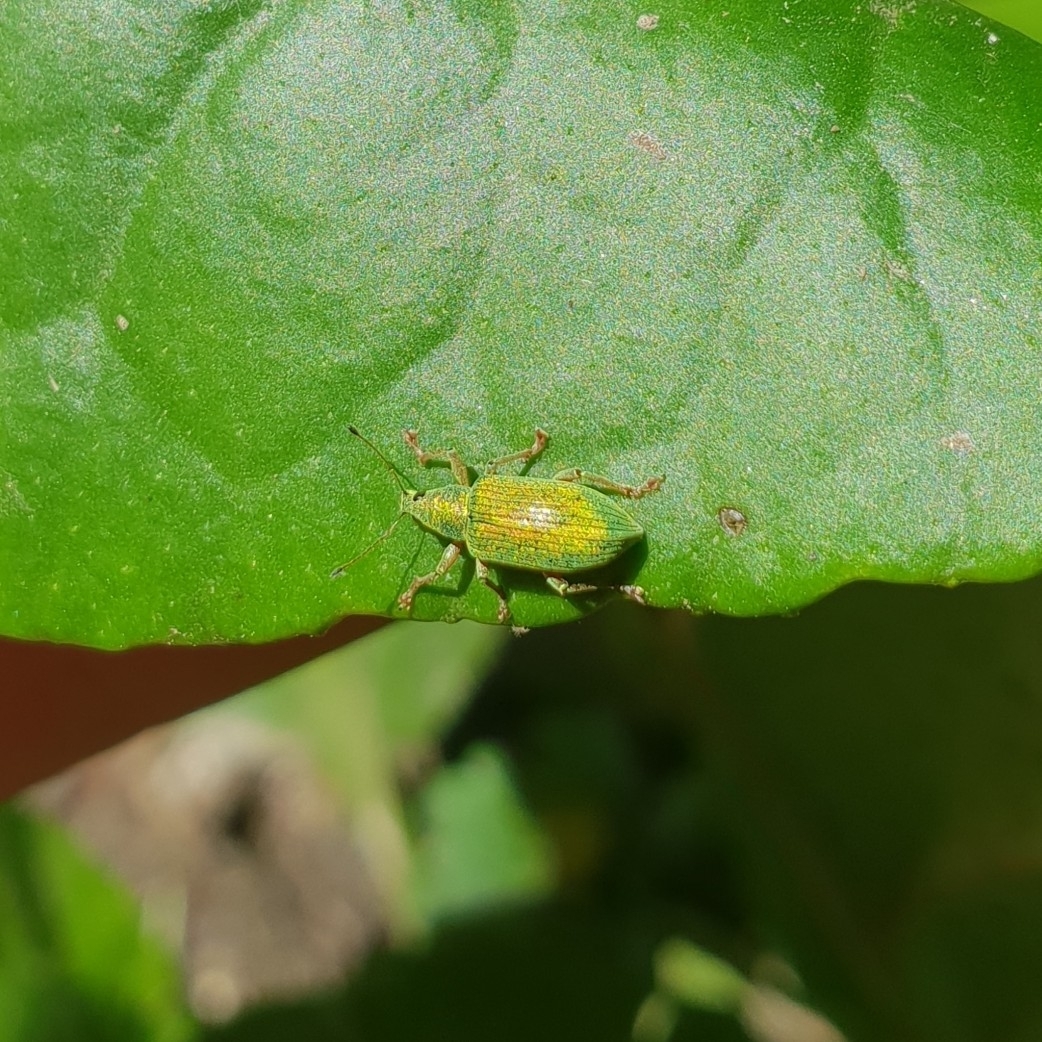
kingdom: Animalia
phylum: Arthropoda
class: Insecta
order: Coleoptera
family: Curculionidae
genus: Polydrusus
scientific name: Polydrusus formosus
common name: Weevil
